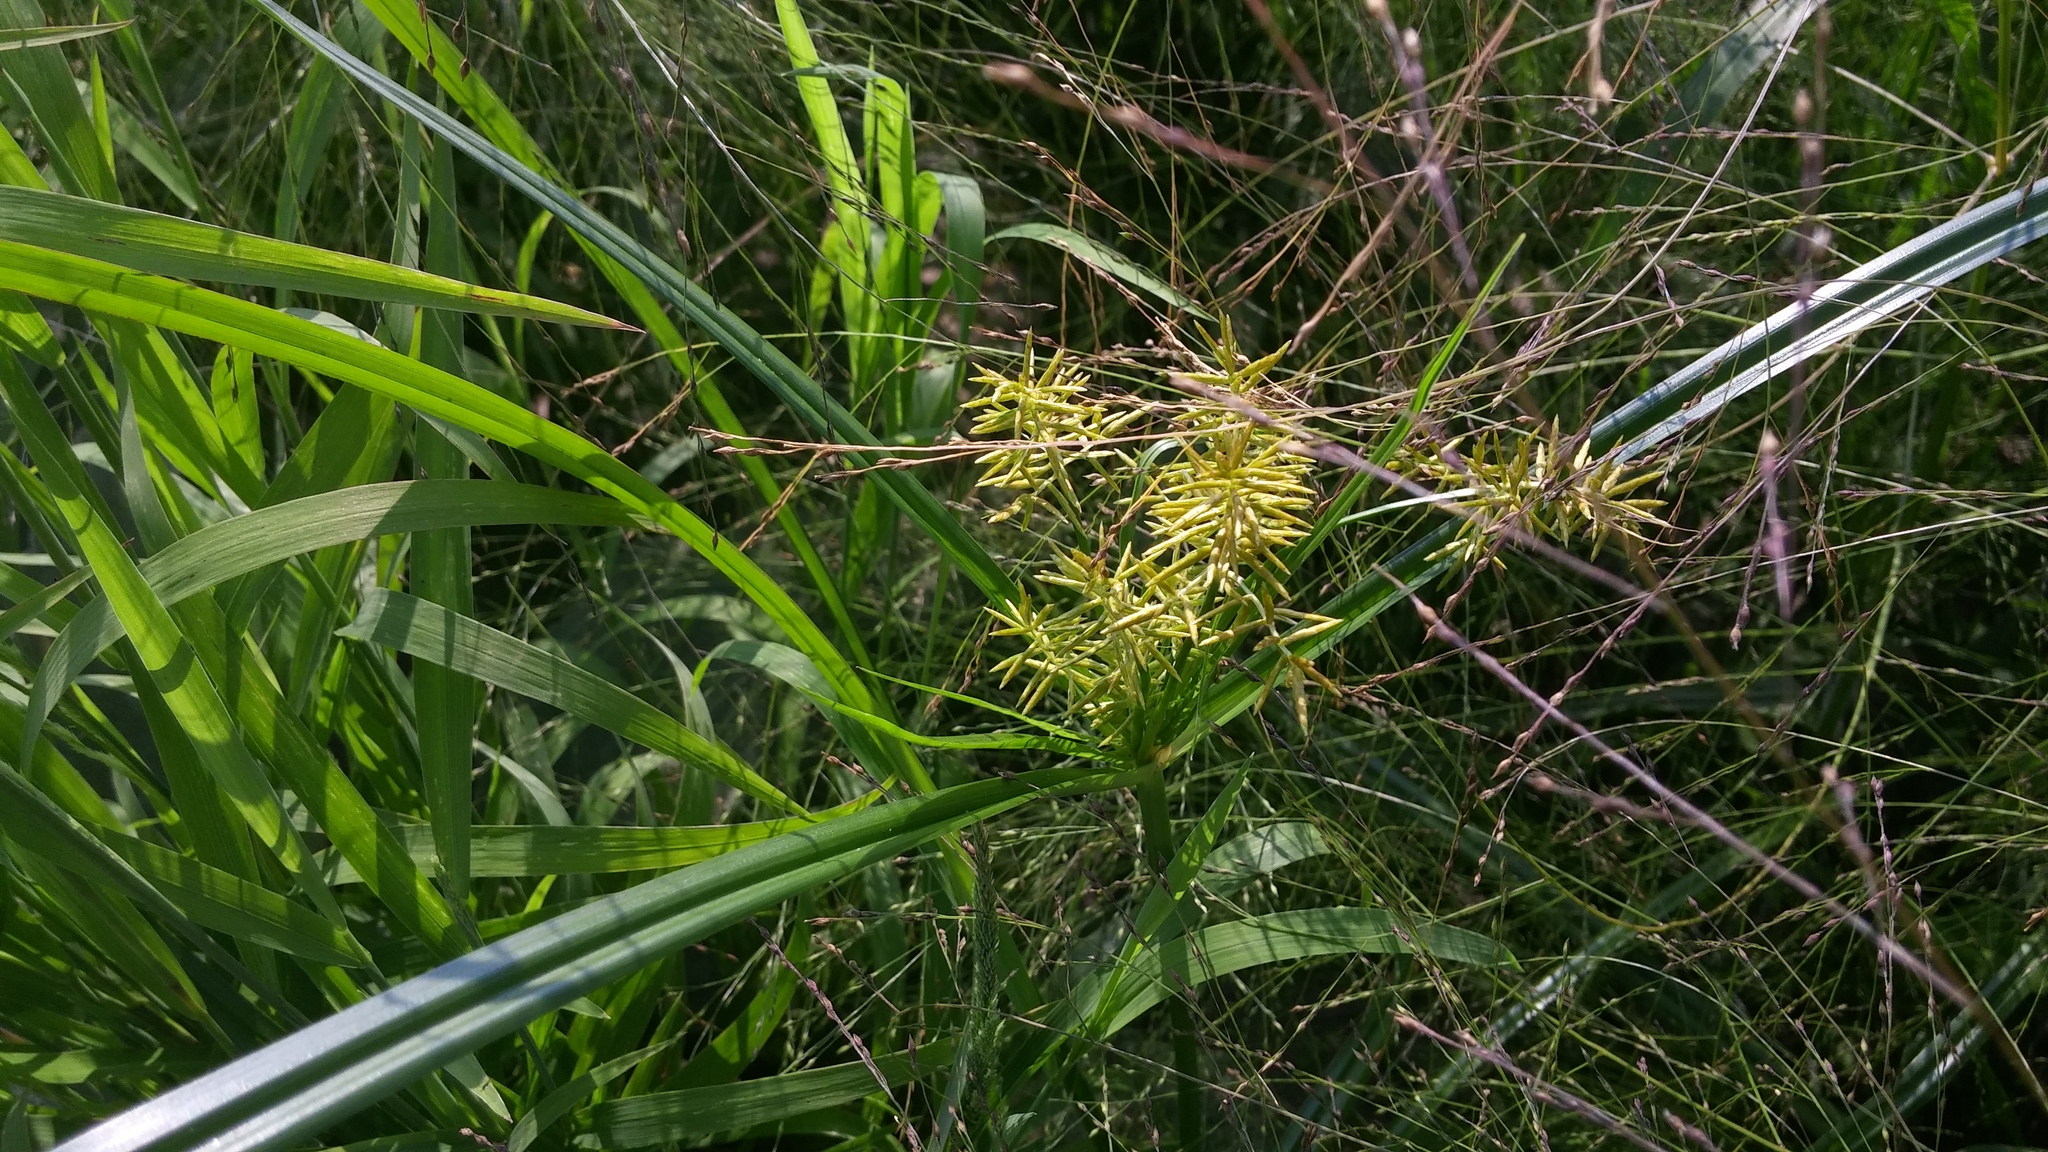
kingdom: Plantae
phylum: Tracheophyta
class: Liliopsida
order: Poales
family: Cyperaceae
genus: Cyperus
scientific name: Cyperus esculentus
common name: Yellow nutsedge
